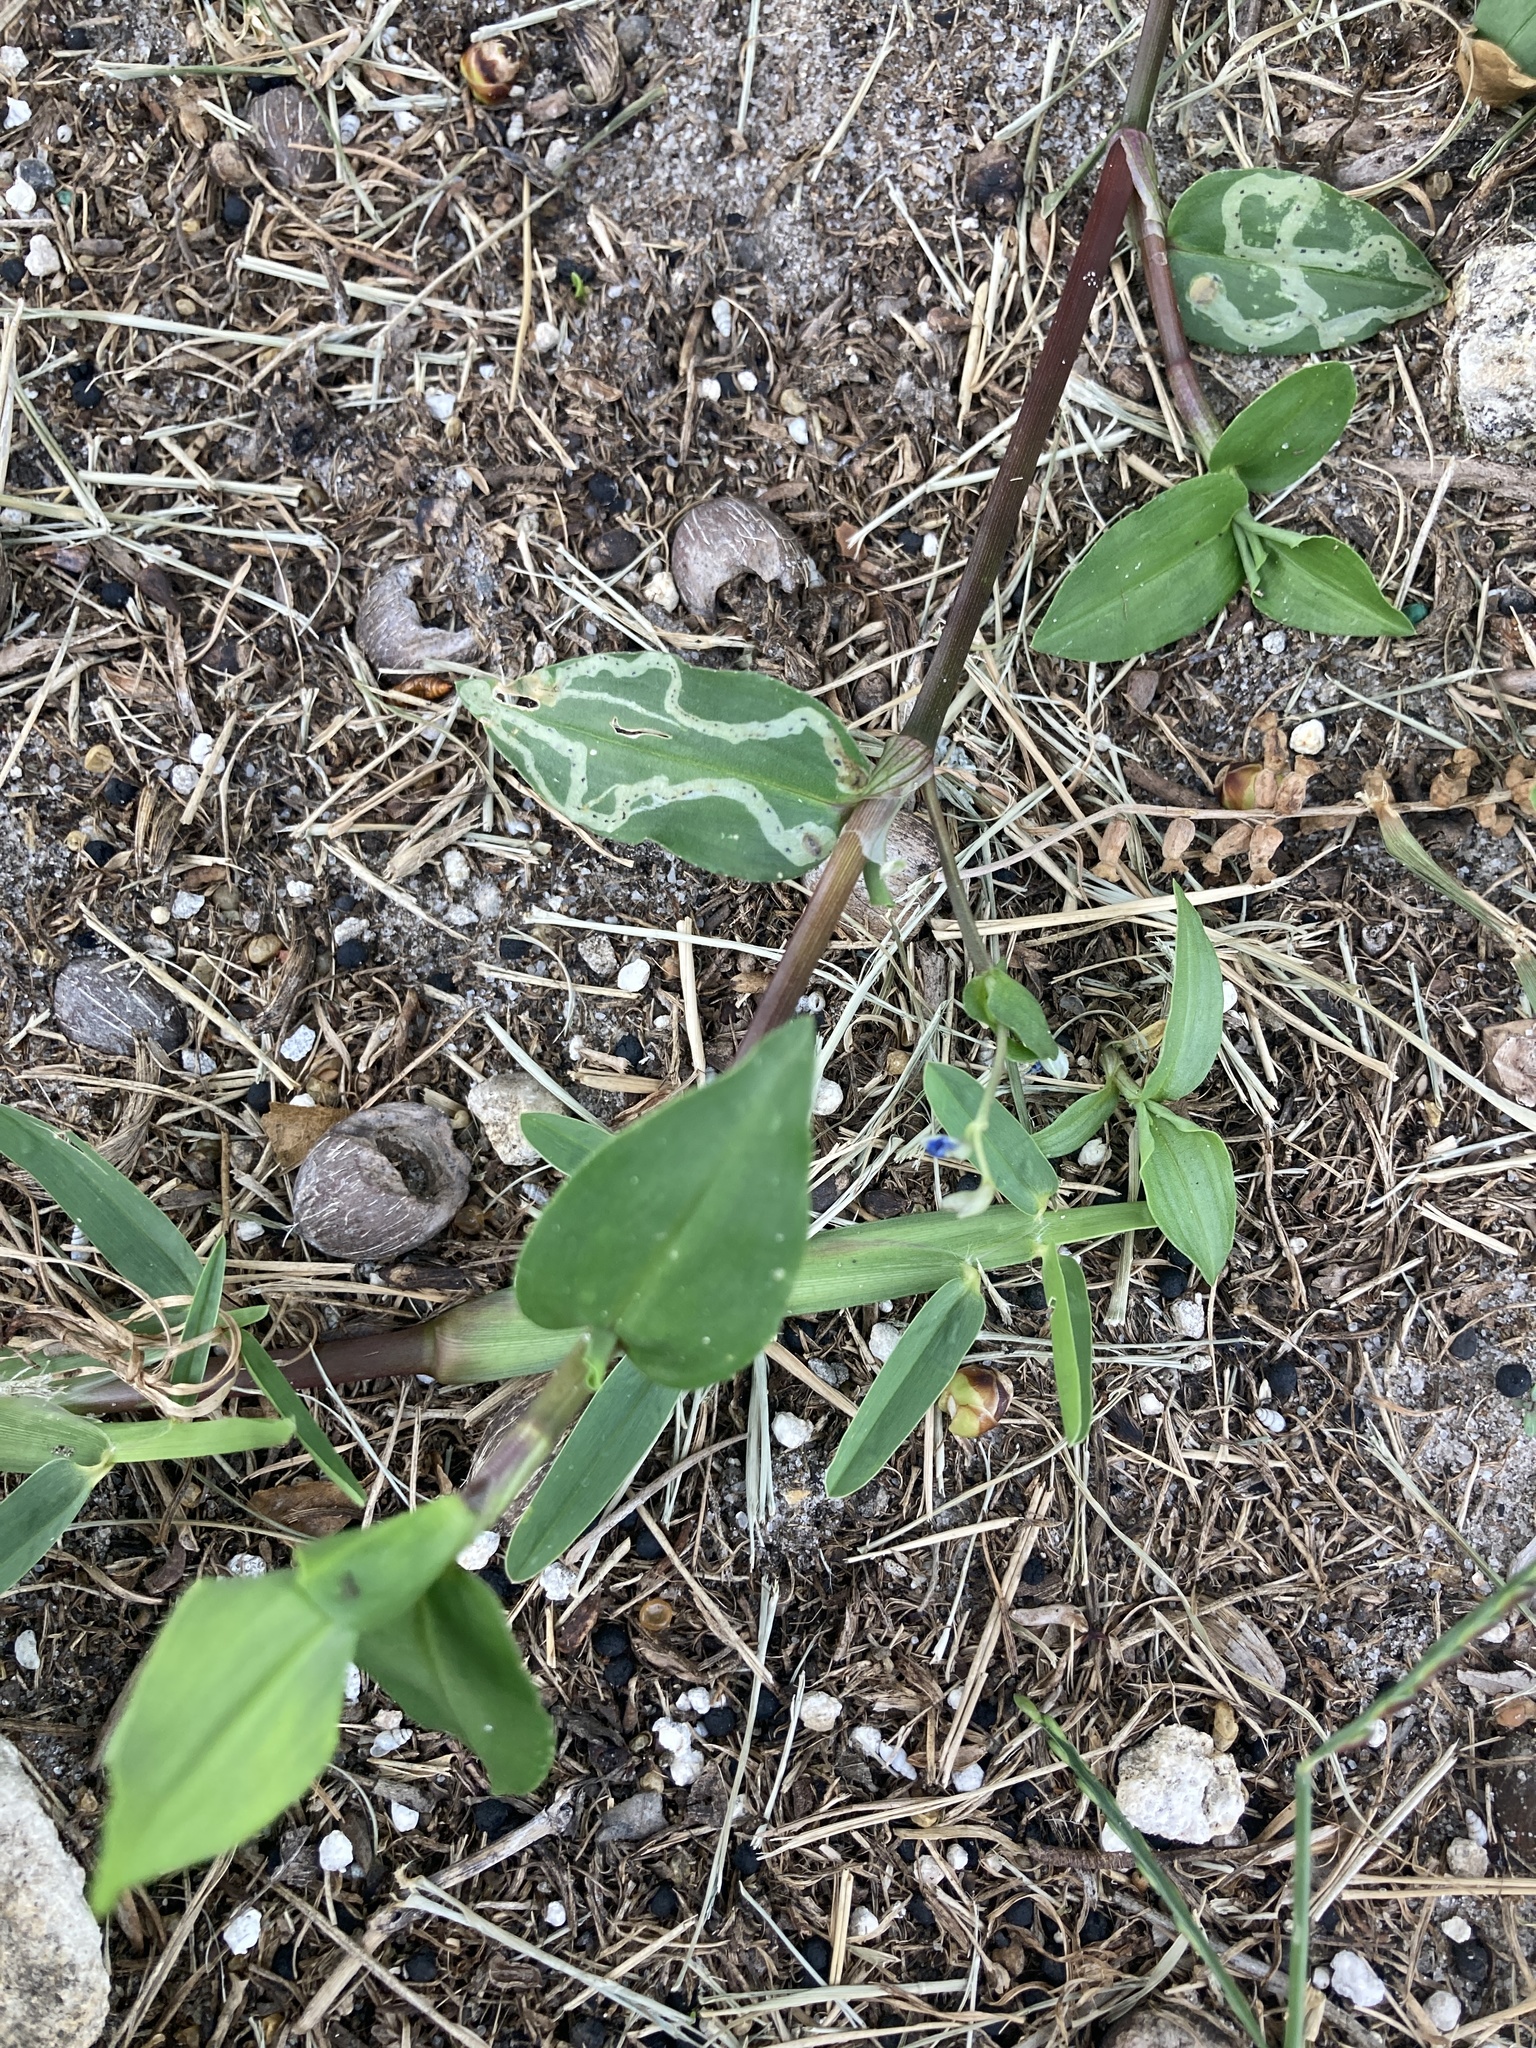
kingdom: Plantae
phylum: Tracheophyta
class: Liliopsida
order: Commelinales
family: Commelinaceae
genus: Commelina
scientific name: Commelina diffusa
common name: Climbing dayflower
